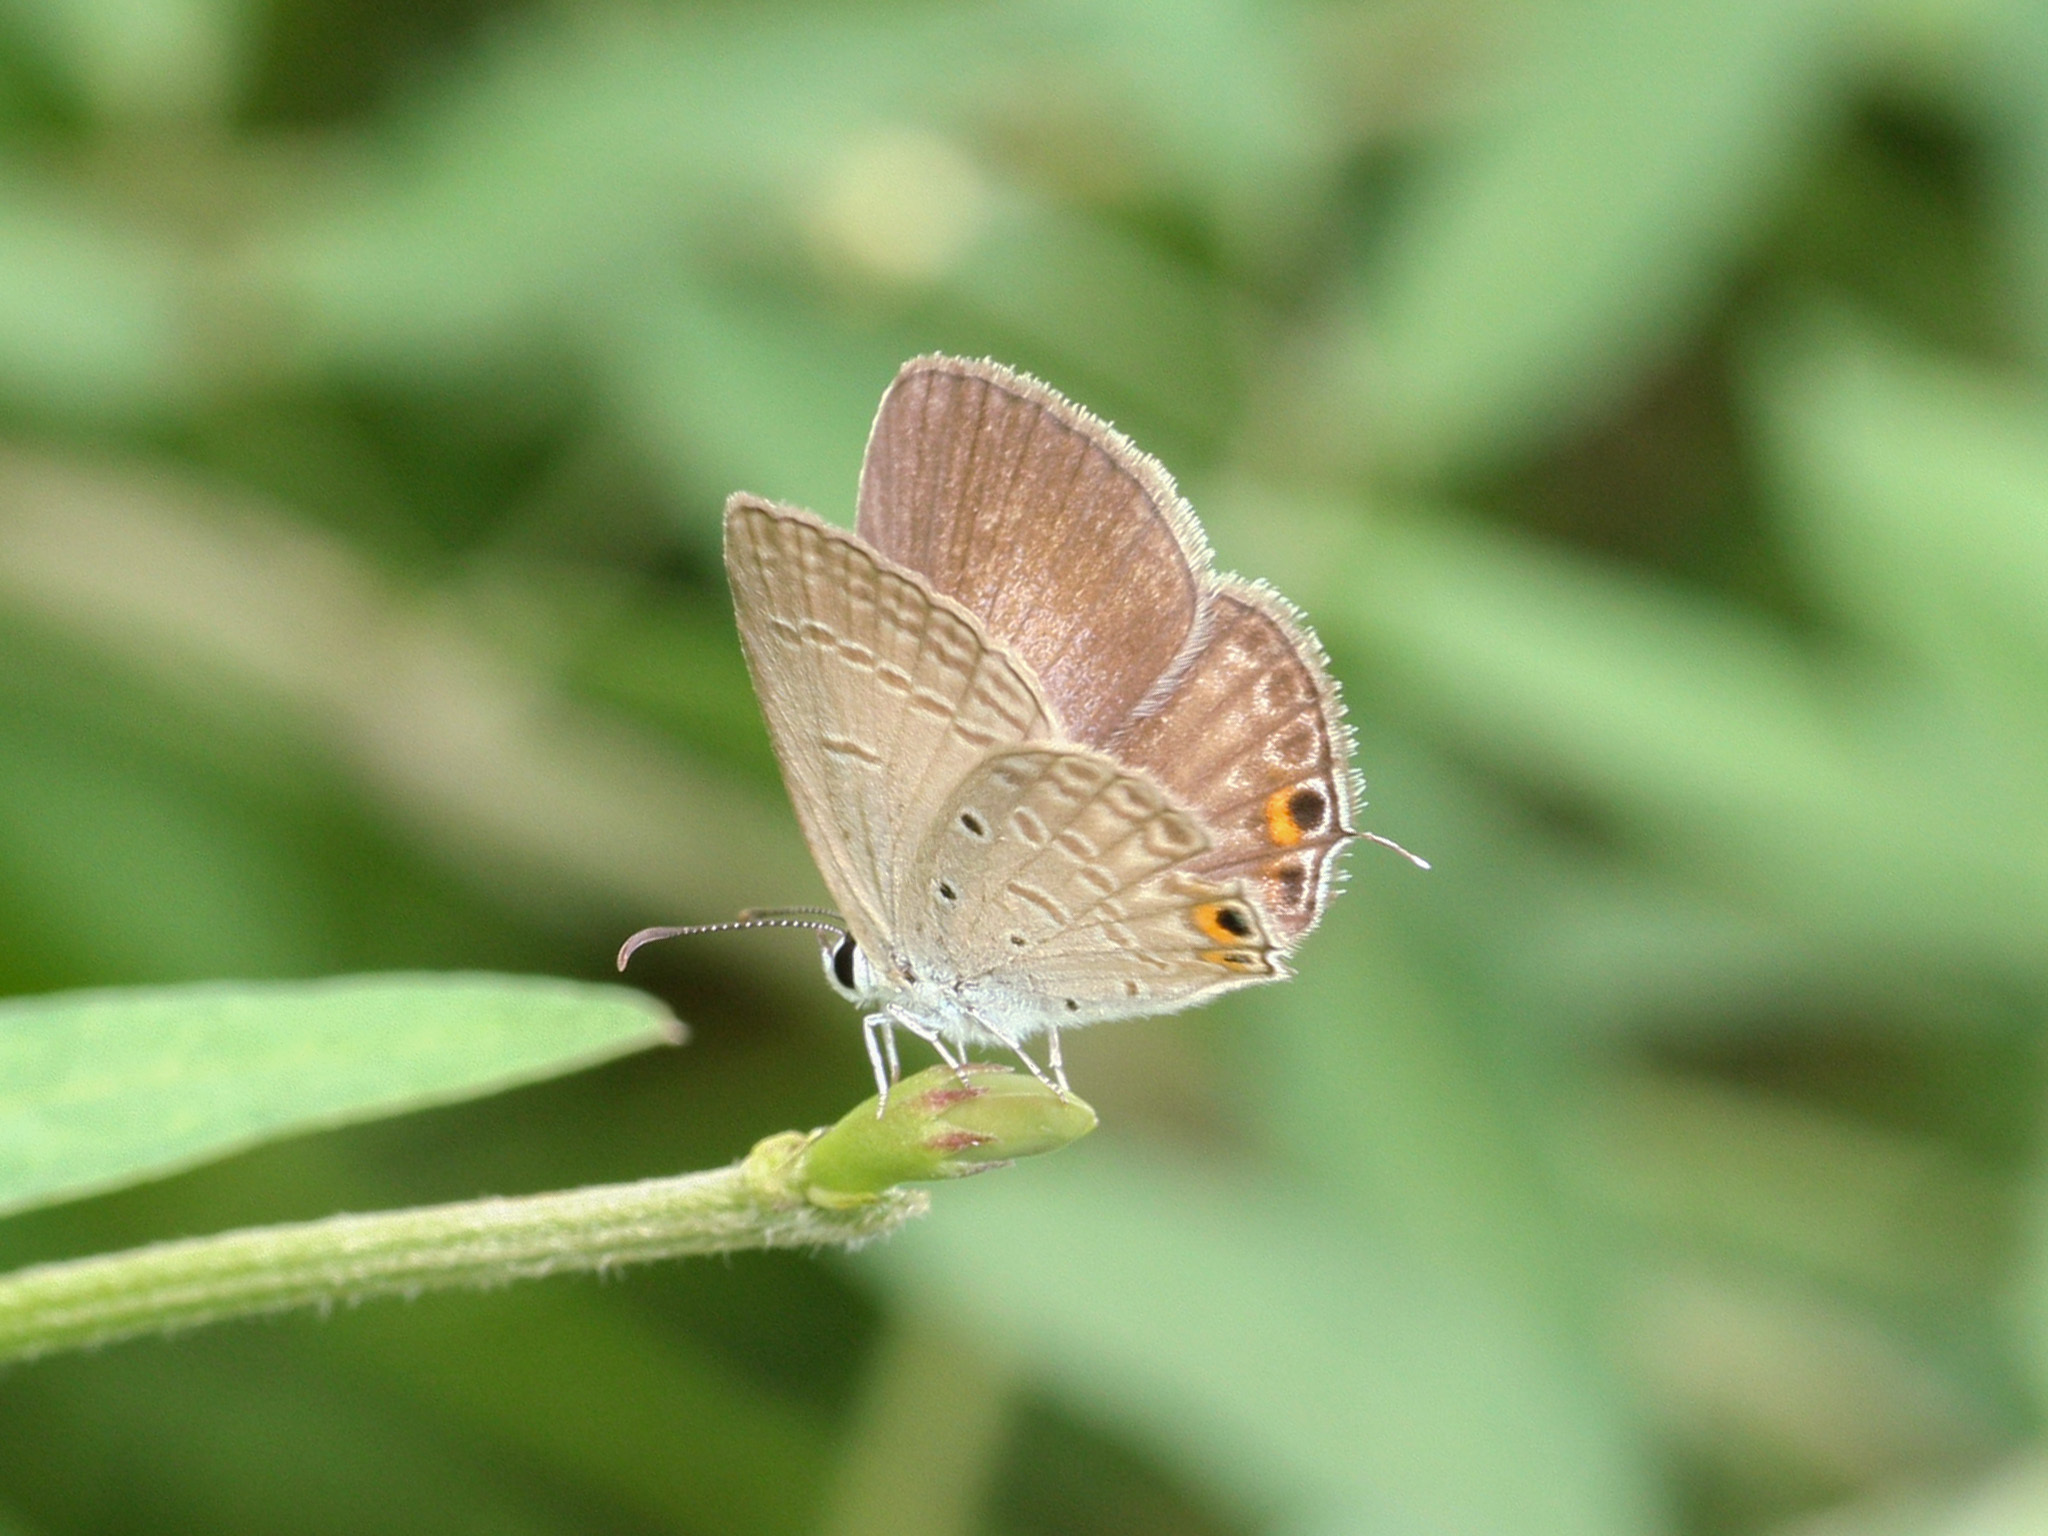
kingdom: Animalia
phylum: Arthropoda
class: Insecta
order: Lepidoptera
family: Lycaenidae
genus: Euchrysops
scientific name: Euchrysops cnejus
